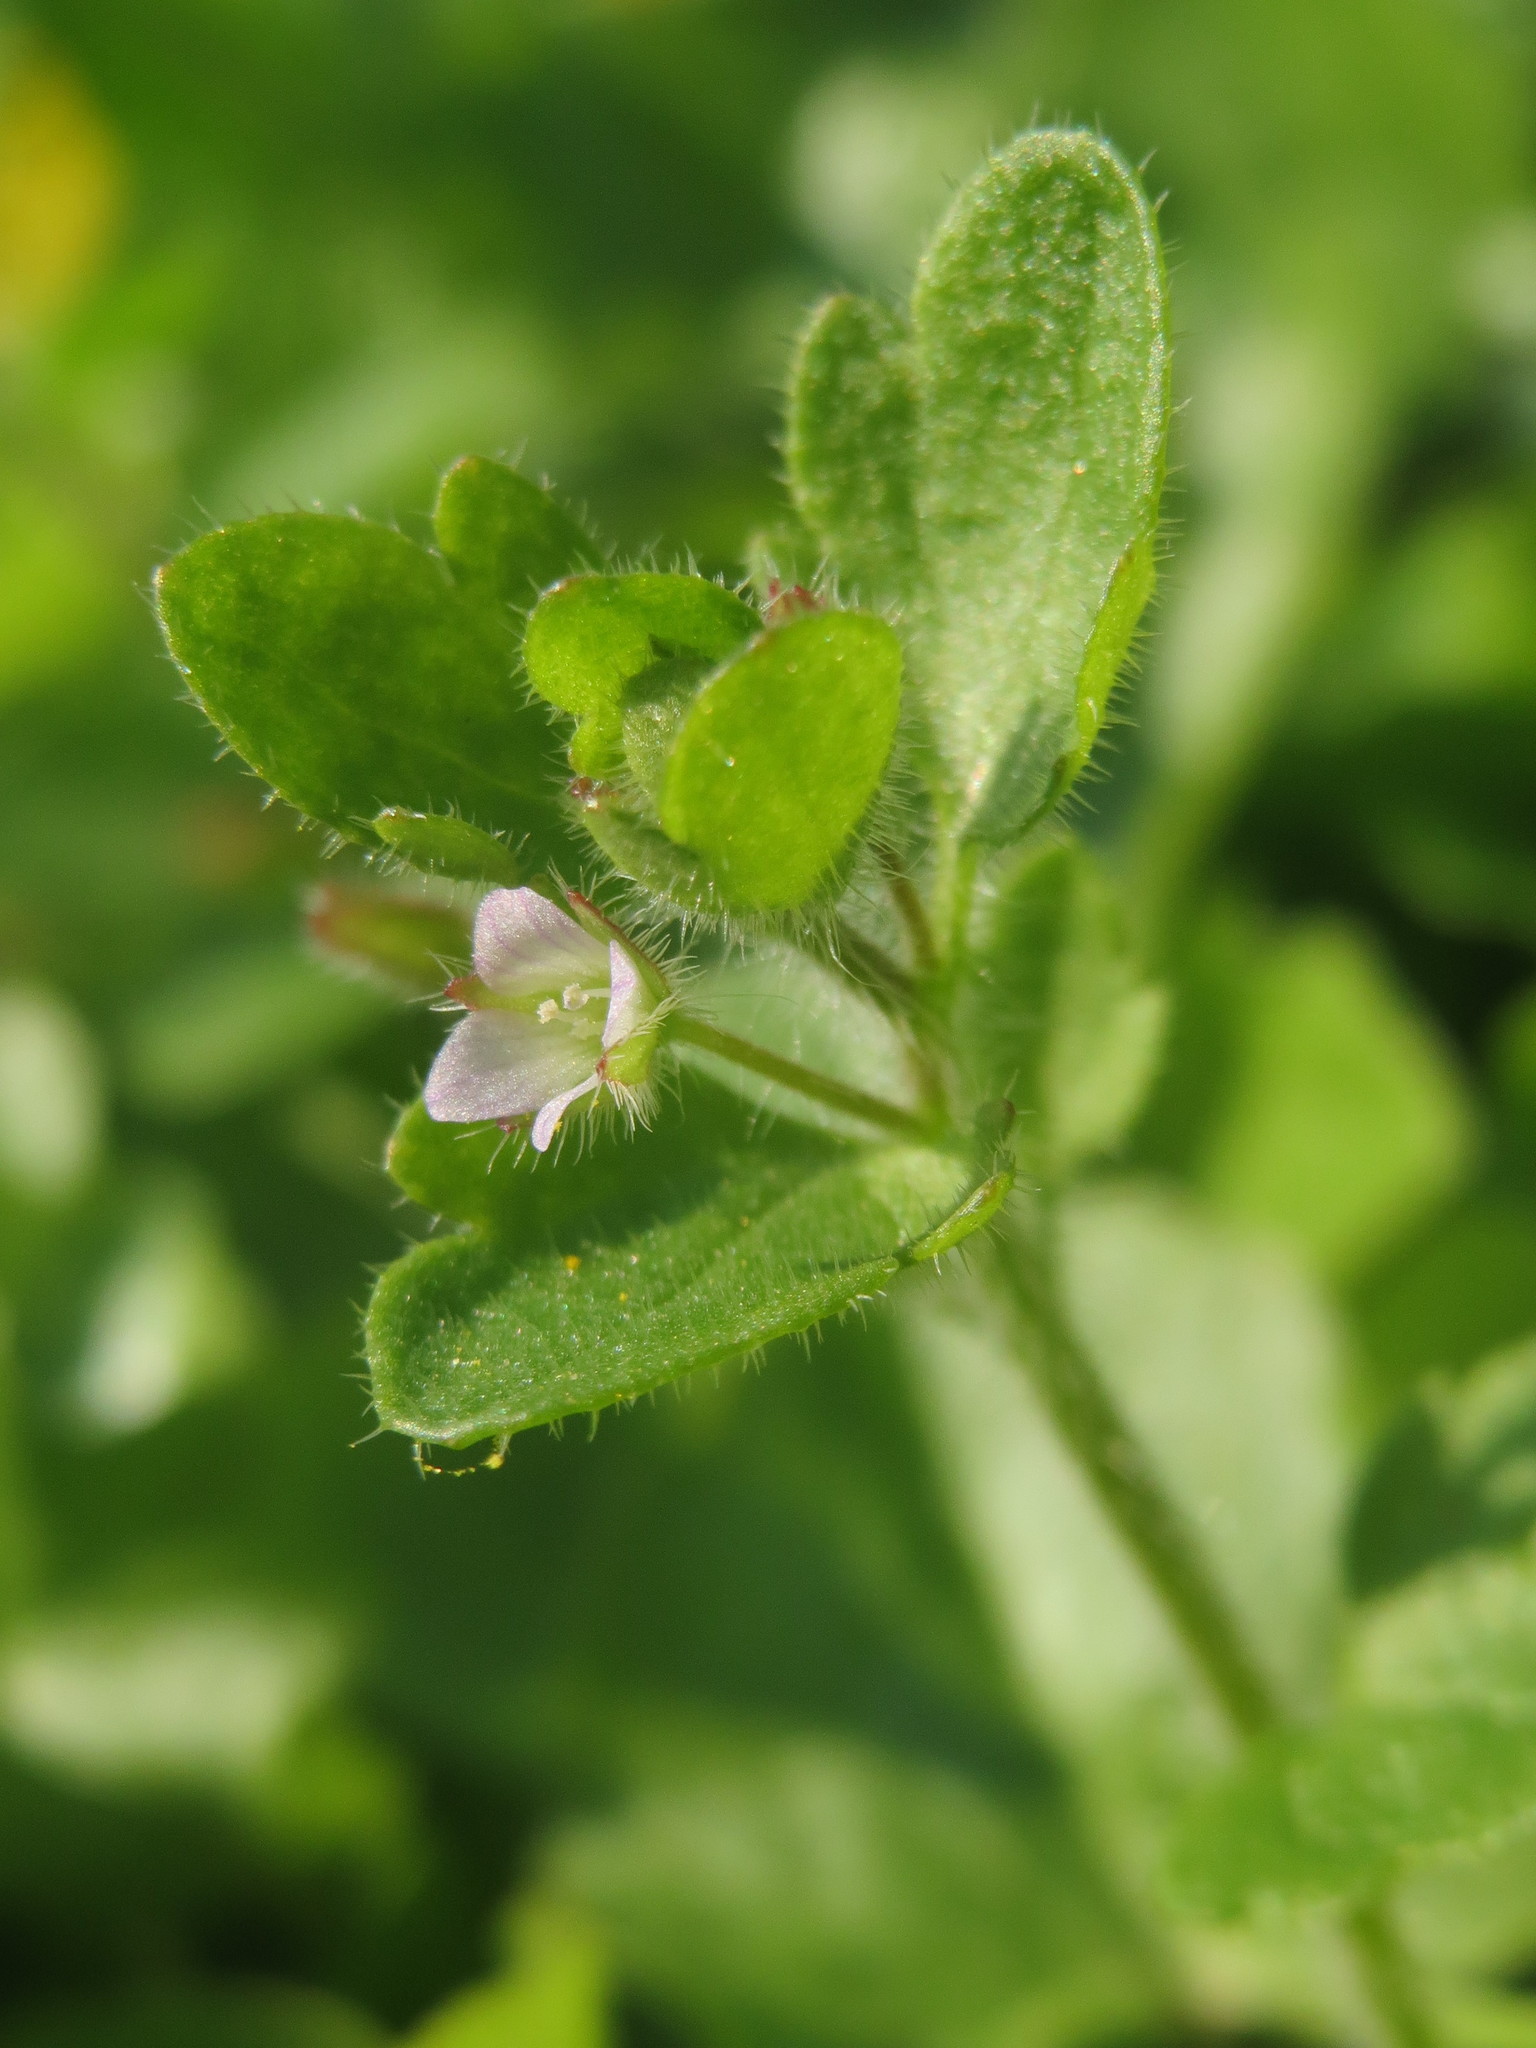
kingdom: Plantae
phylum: Tracheophyta
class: Magnoliopsida
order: Lamiales
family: Plantaginaceae
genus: Veronica
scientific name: Veronica hederifolia
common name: Ivy-leaved speedwell
